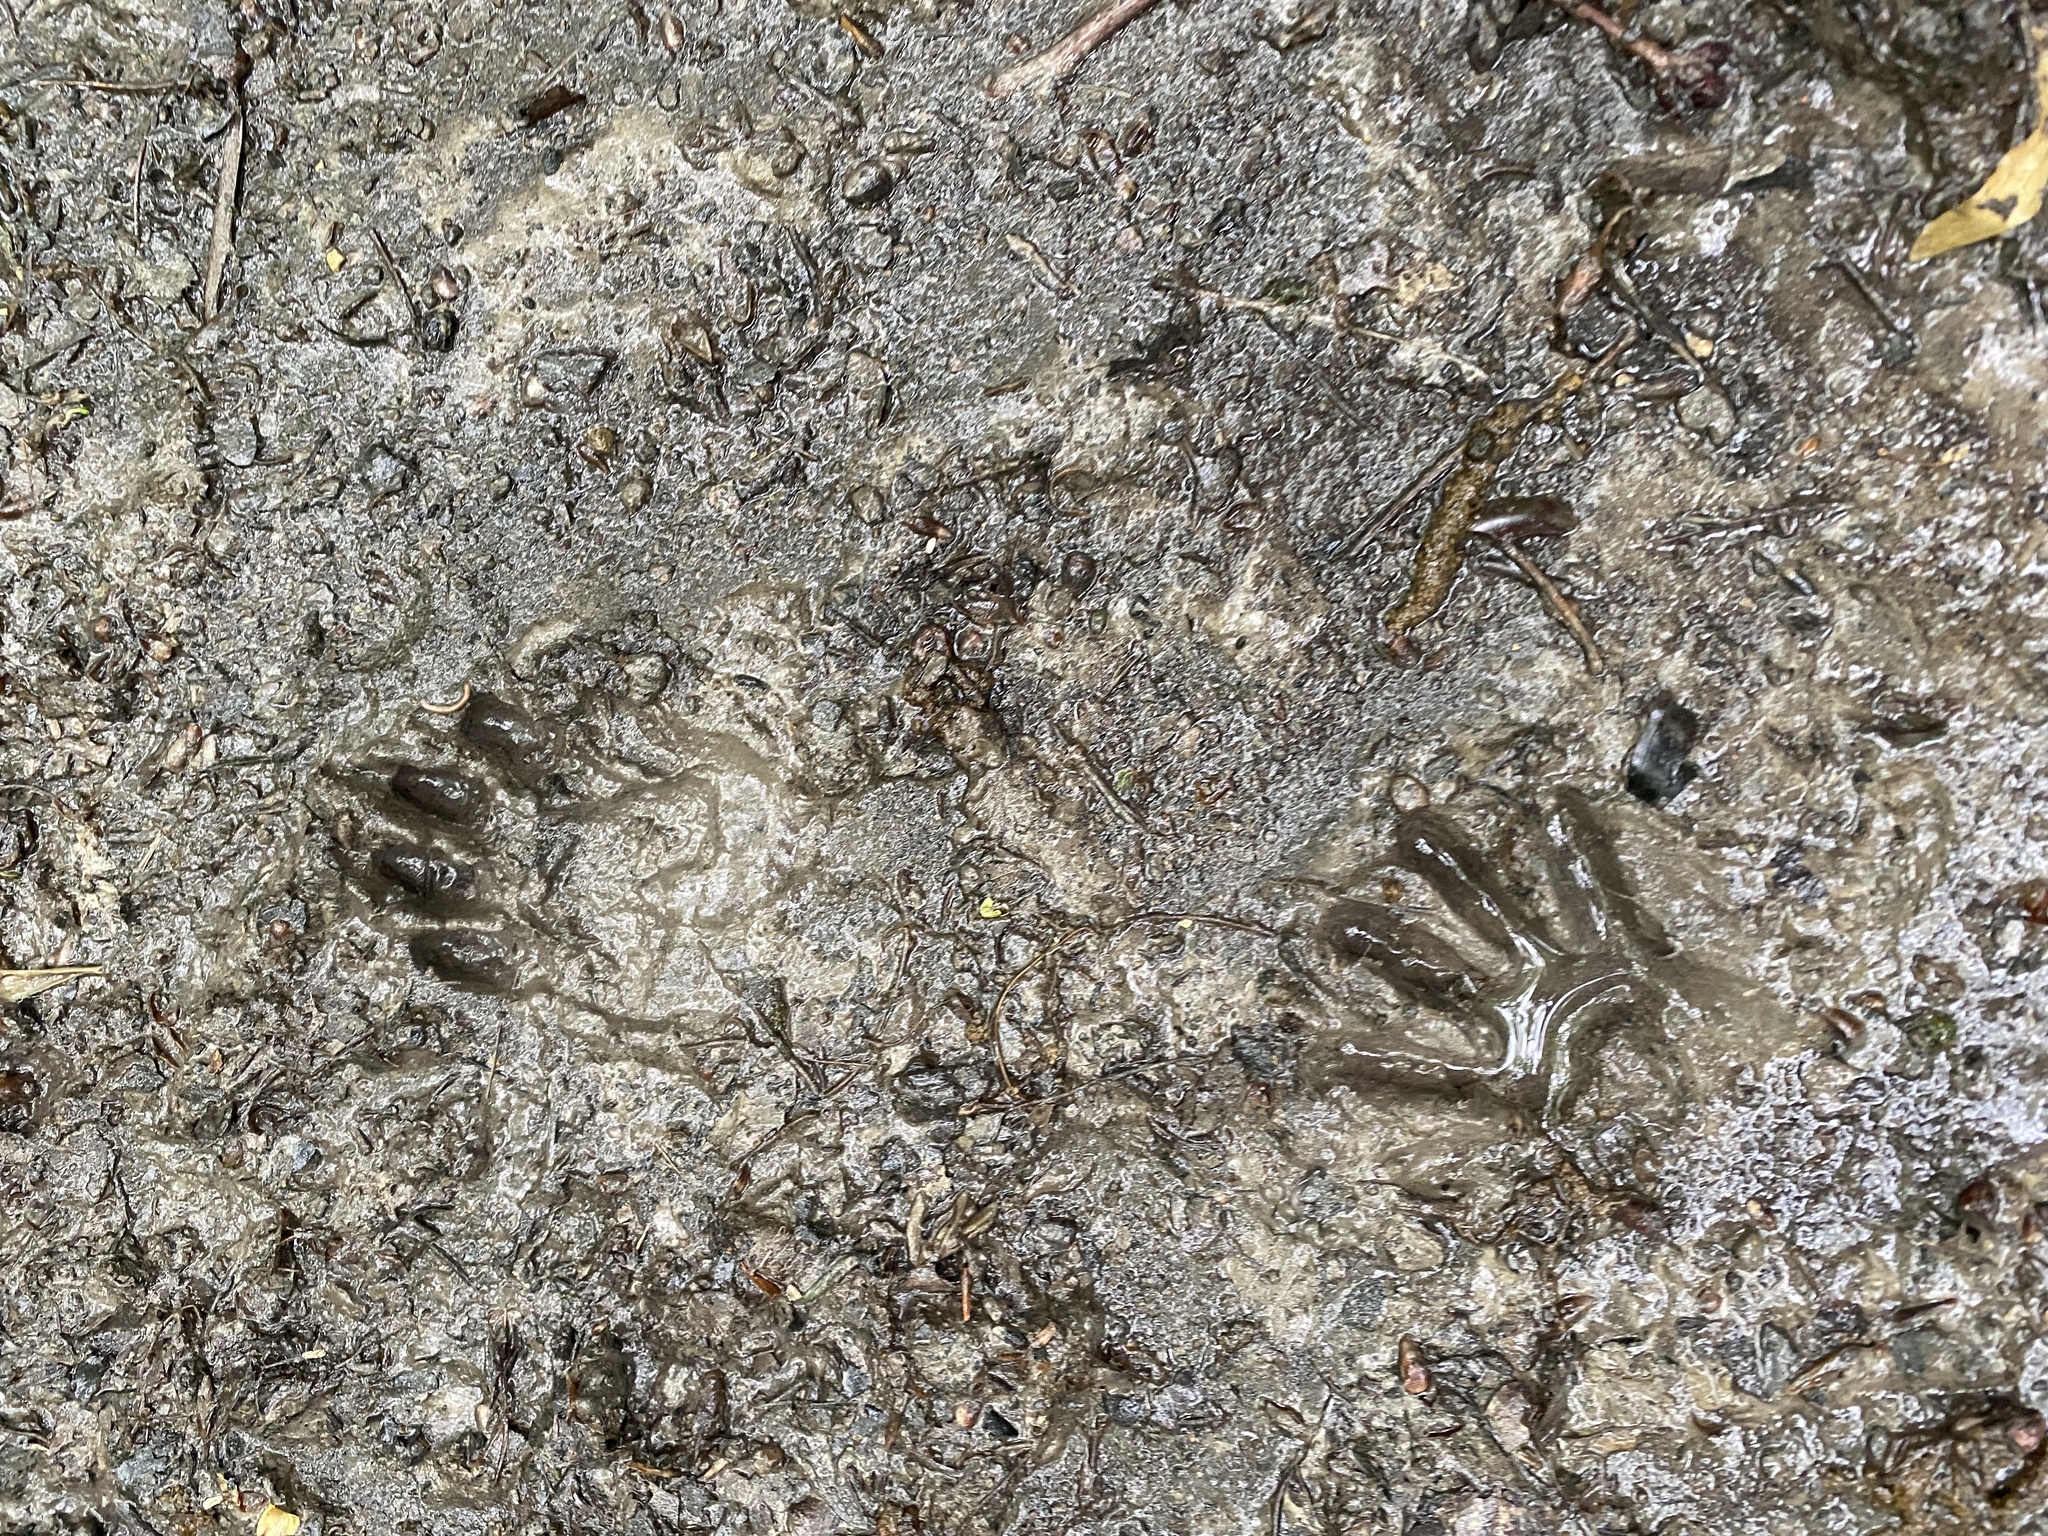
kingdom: Animalia
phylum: Chordata
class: Mammalia
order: Carnivora
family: Procyonidae
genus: Procyon
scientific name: Procyon lotor
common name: Raccoon
